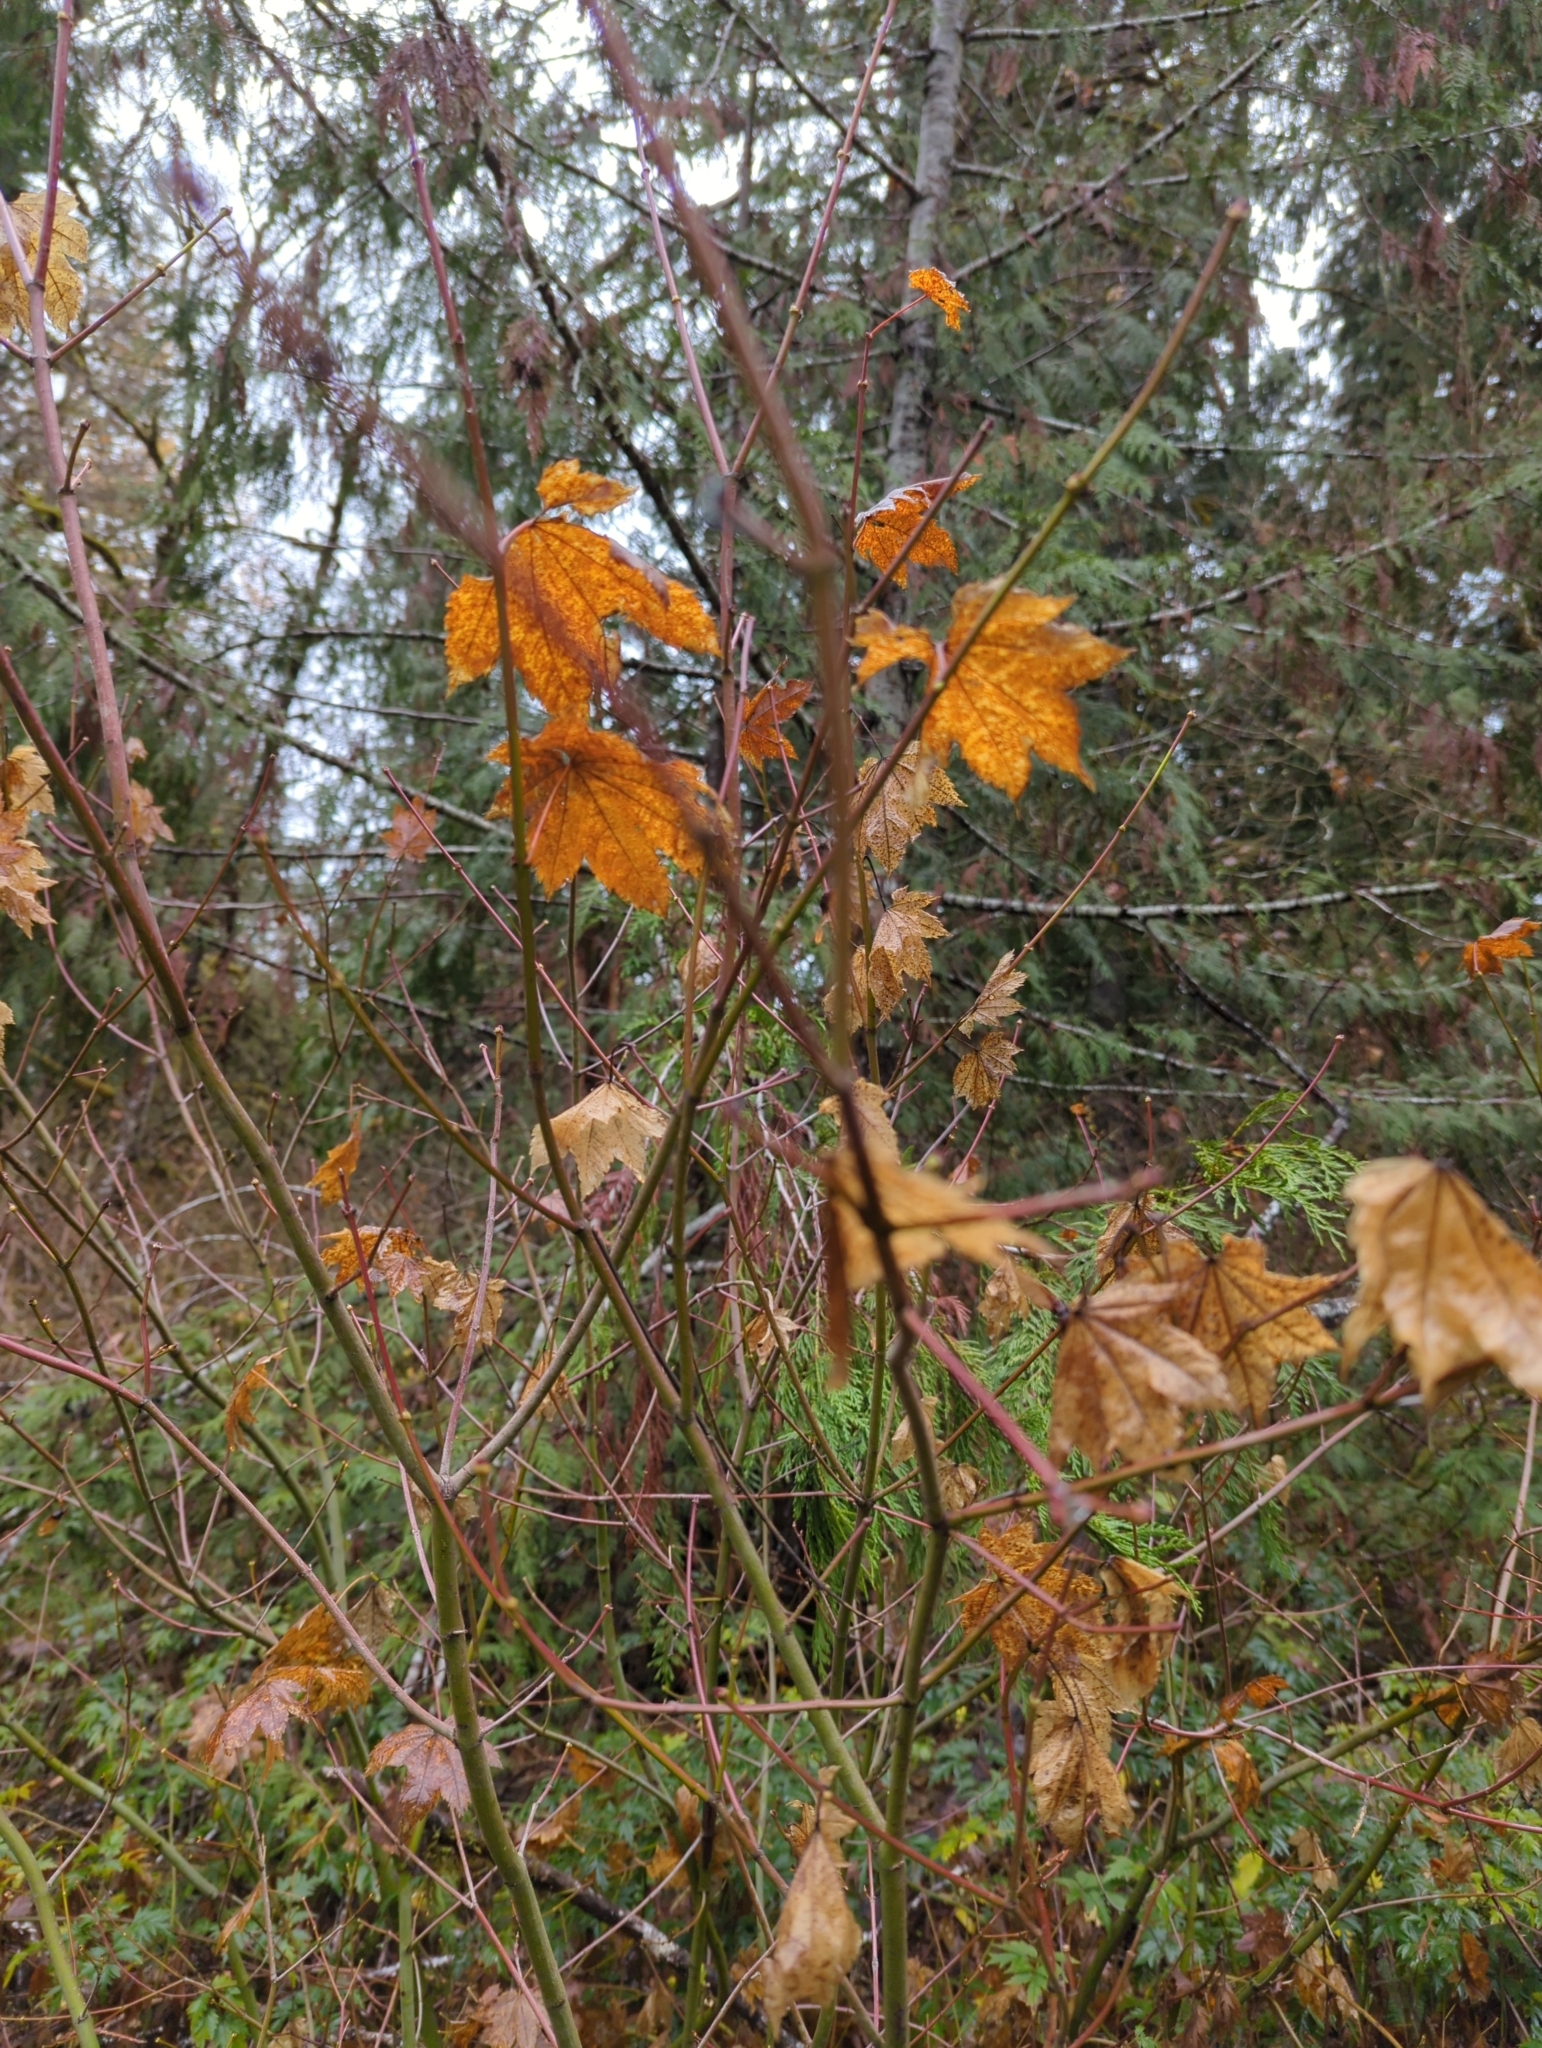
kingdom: Plantae
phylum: Tracheophyta
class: Magnoliopsida
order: Sapindales
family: Sapindaceae
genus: Acer
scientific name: Acer circinatum
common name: Vine maple
